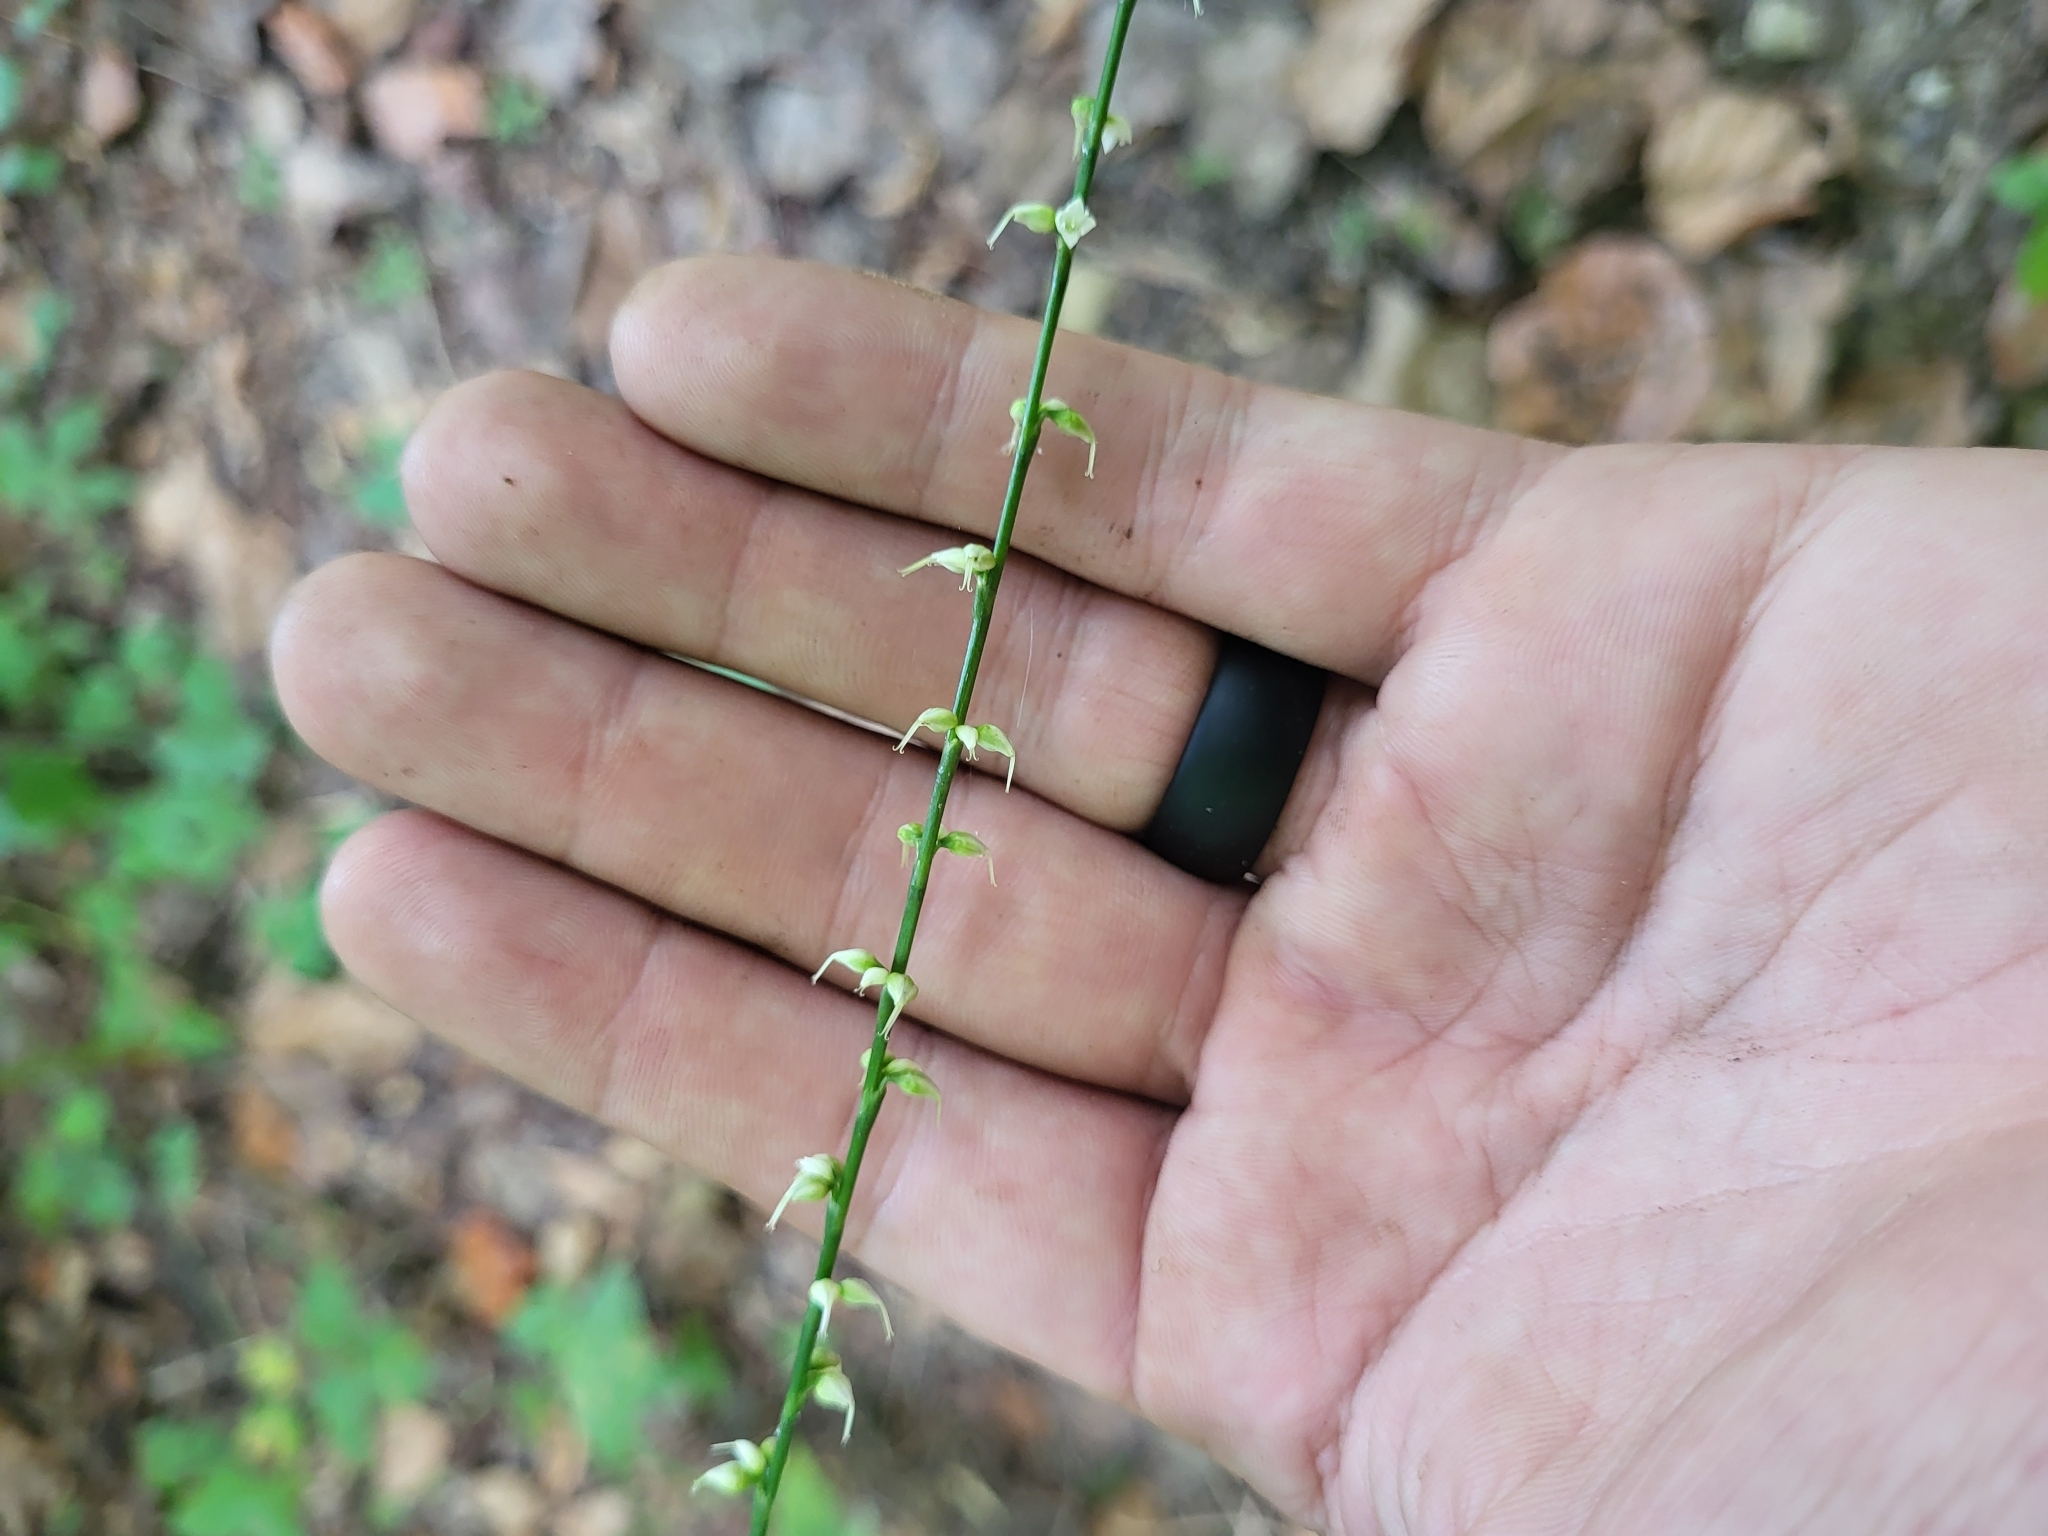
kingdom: Plantae
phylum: Tracheophyta
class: Magnoliopsida
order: Caryophyllales
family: Polygonaceae
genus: Persicaria
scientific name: Persicaria virginiana
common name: Jumpseed
